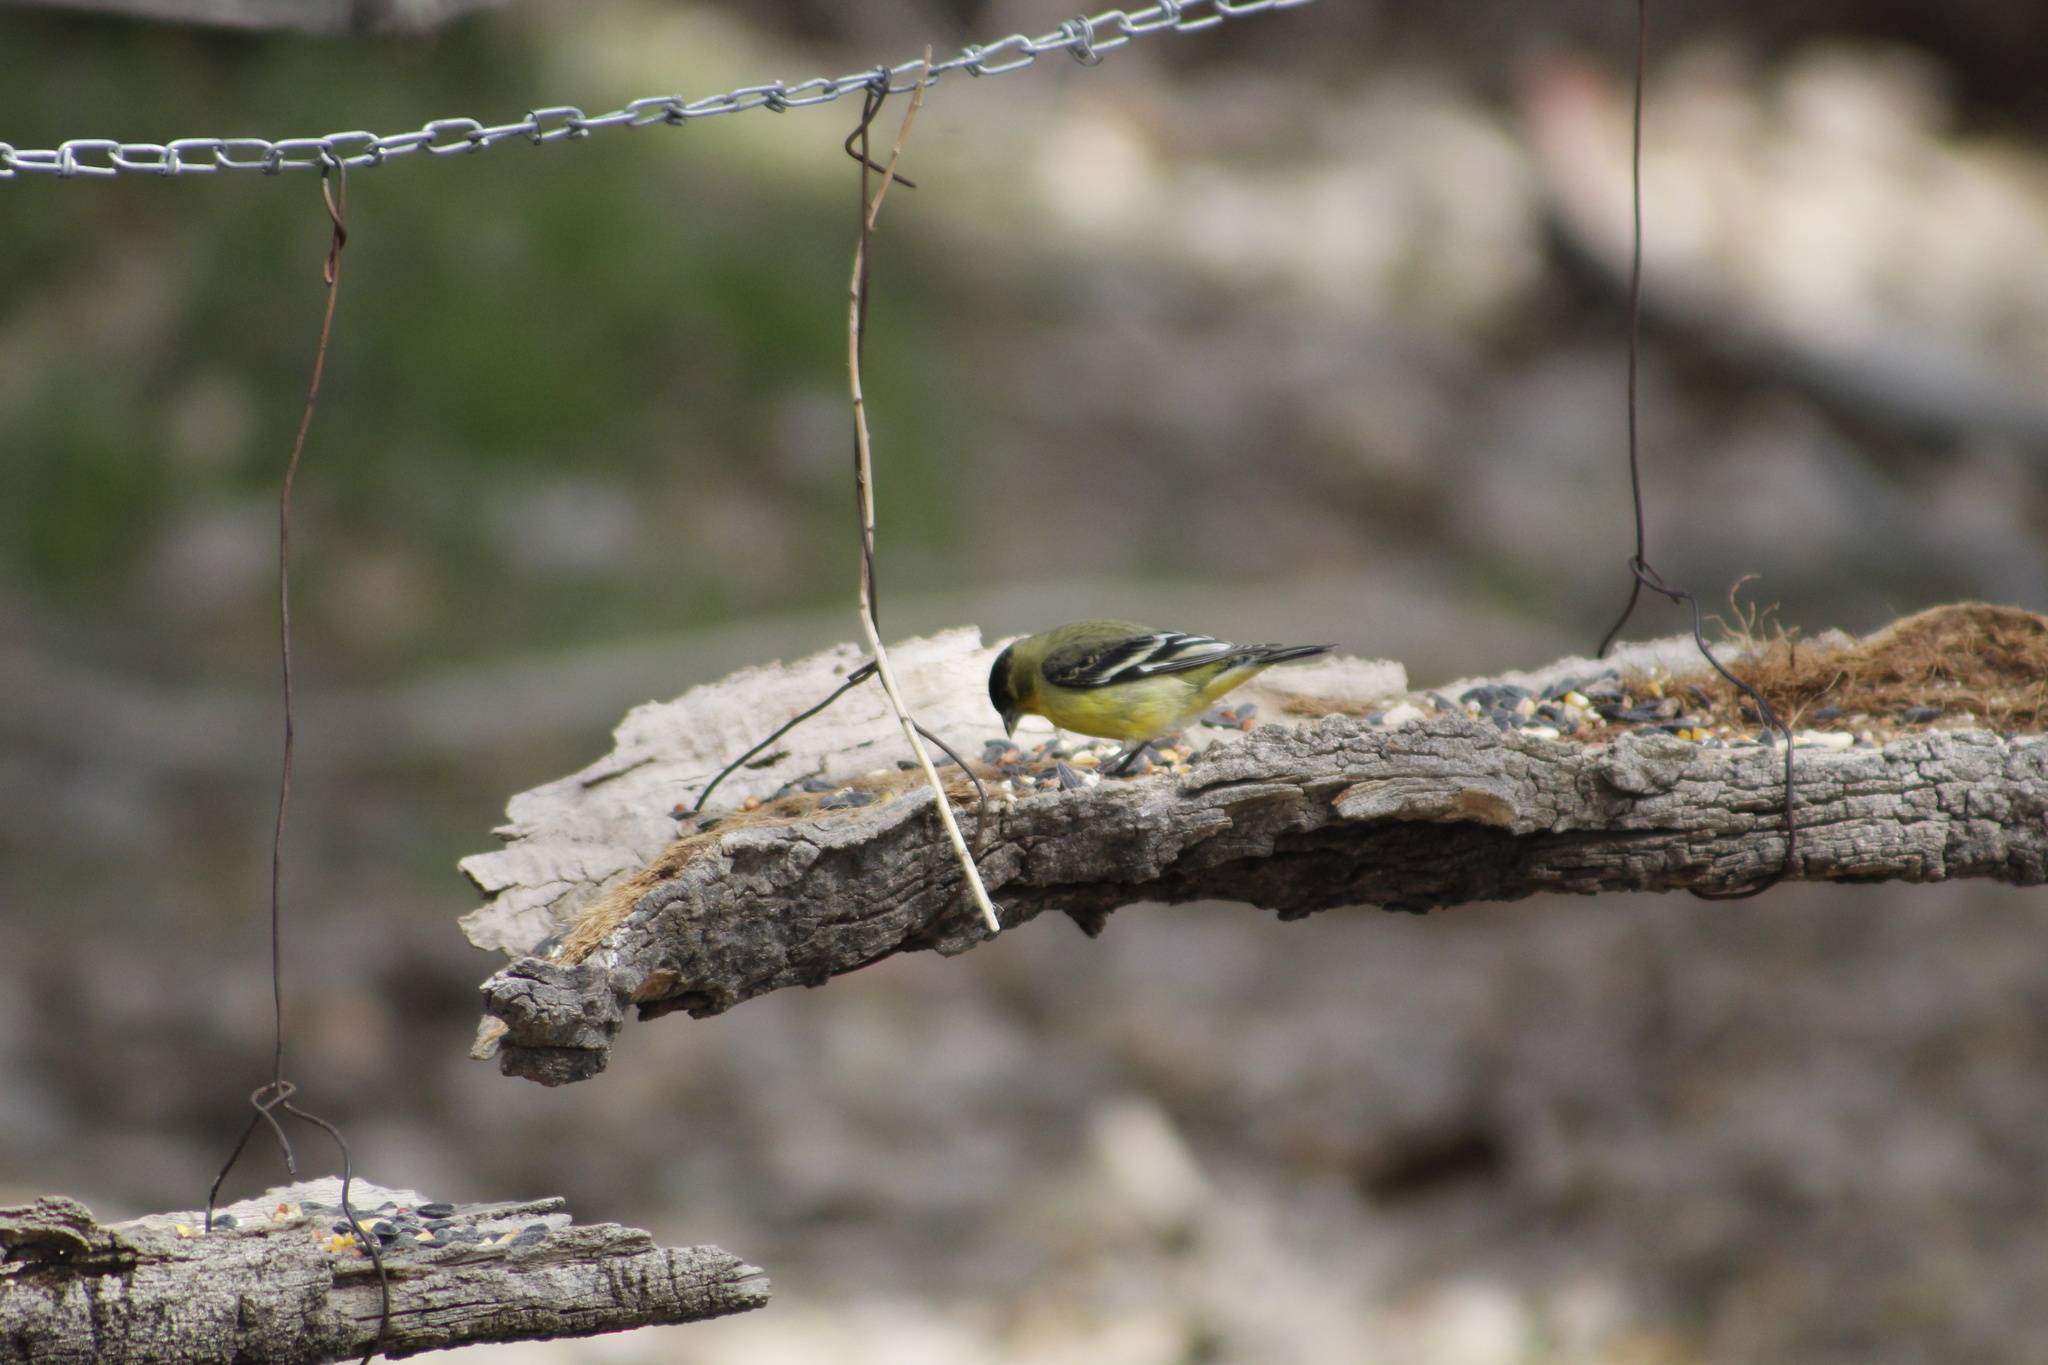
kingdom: Animalia
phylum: Chordata
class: Aves
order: Passeriformes
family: Fringillidae
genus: Spinus
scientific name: Spinus psaltria
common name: Lesser goldfinch
